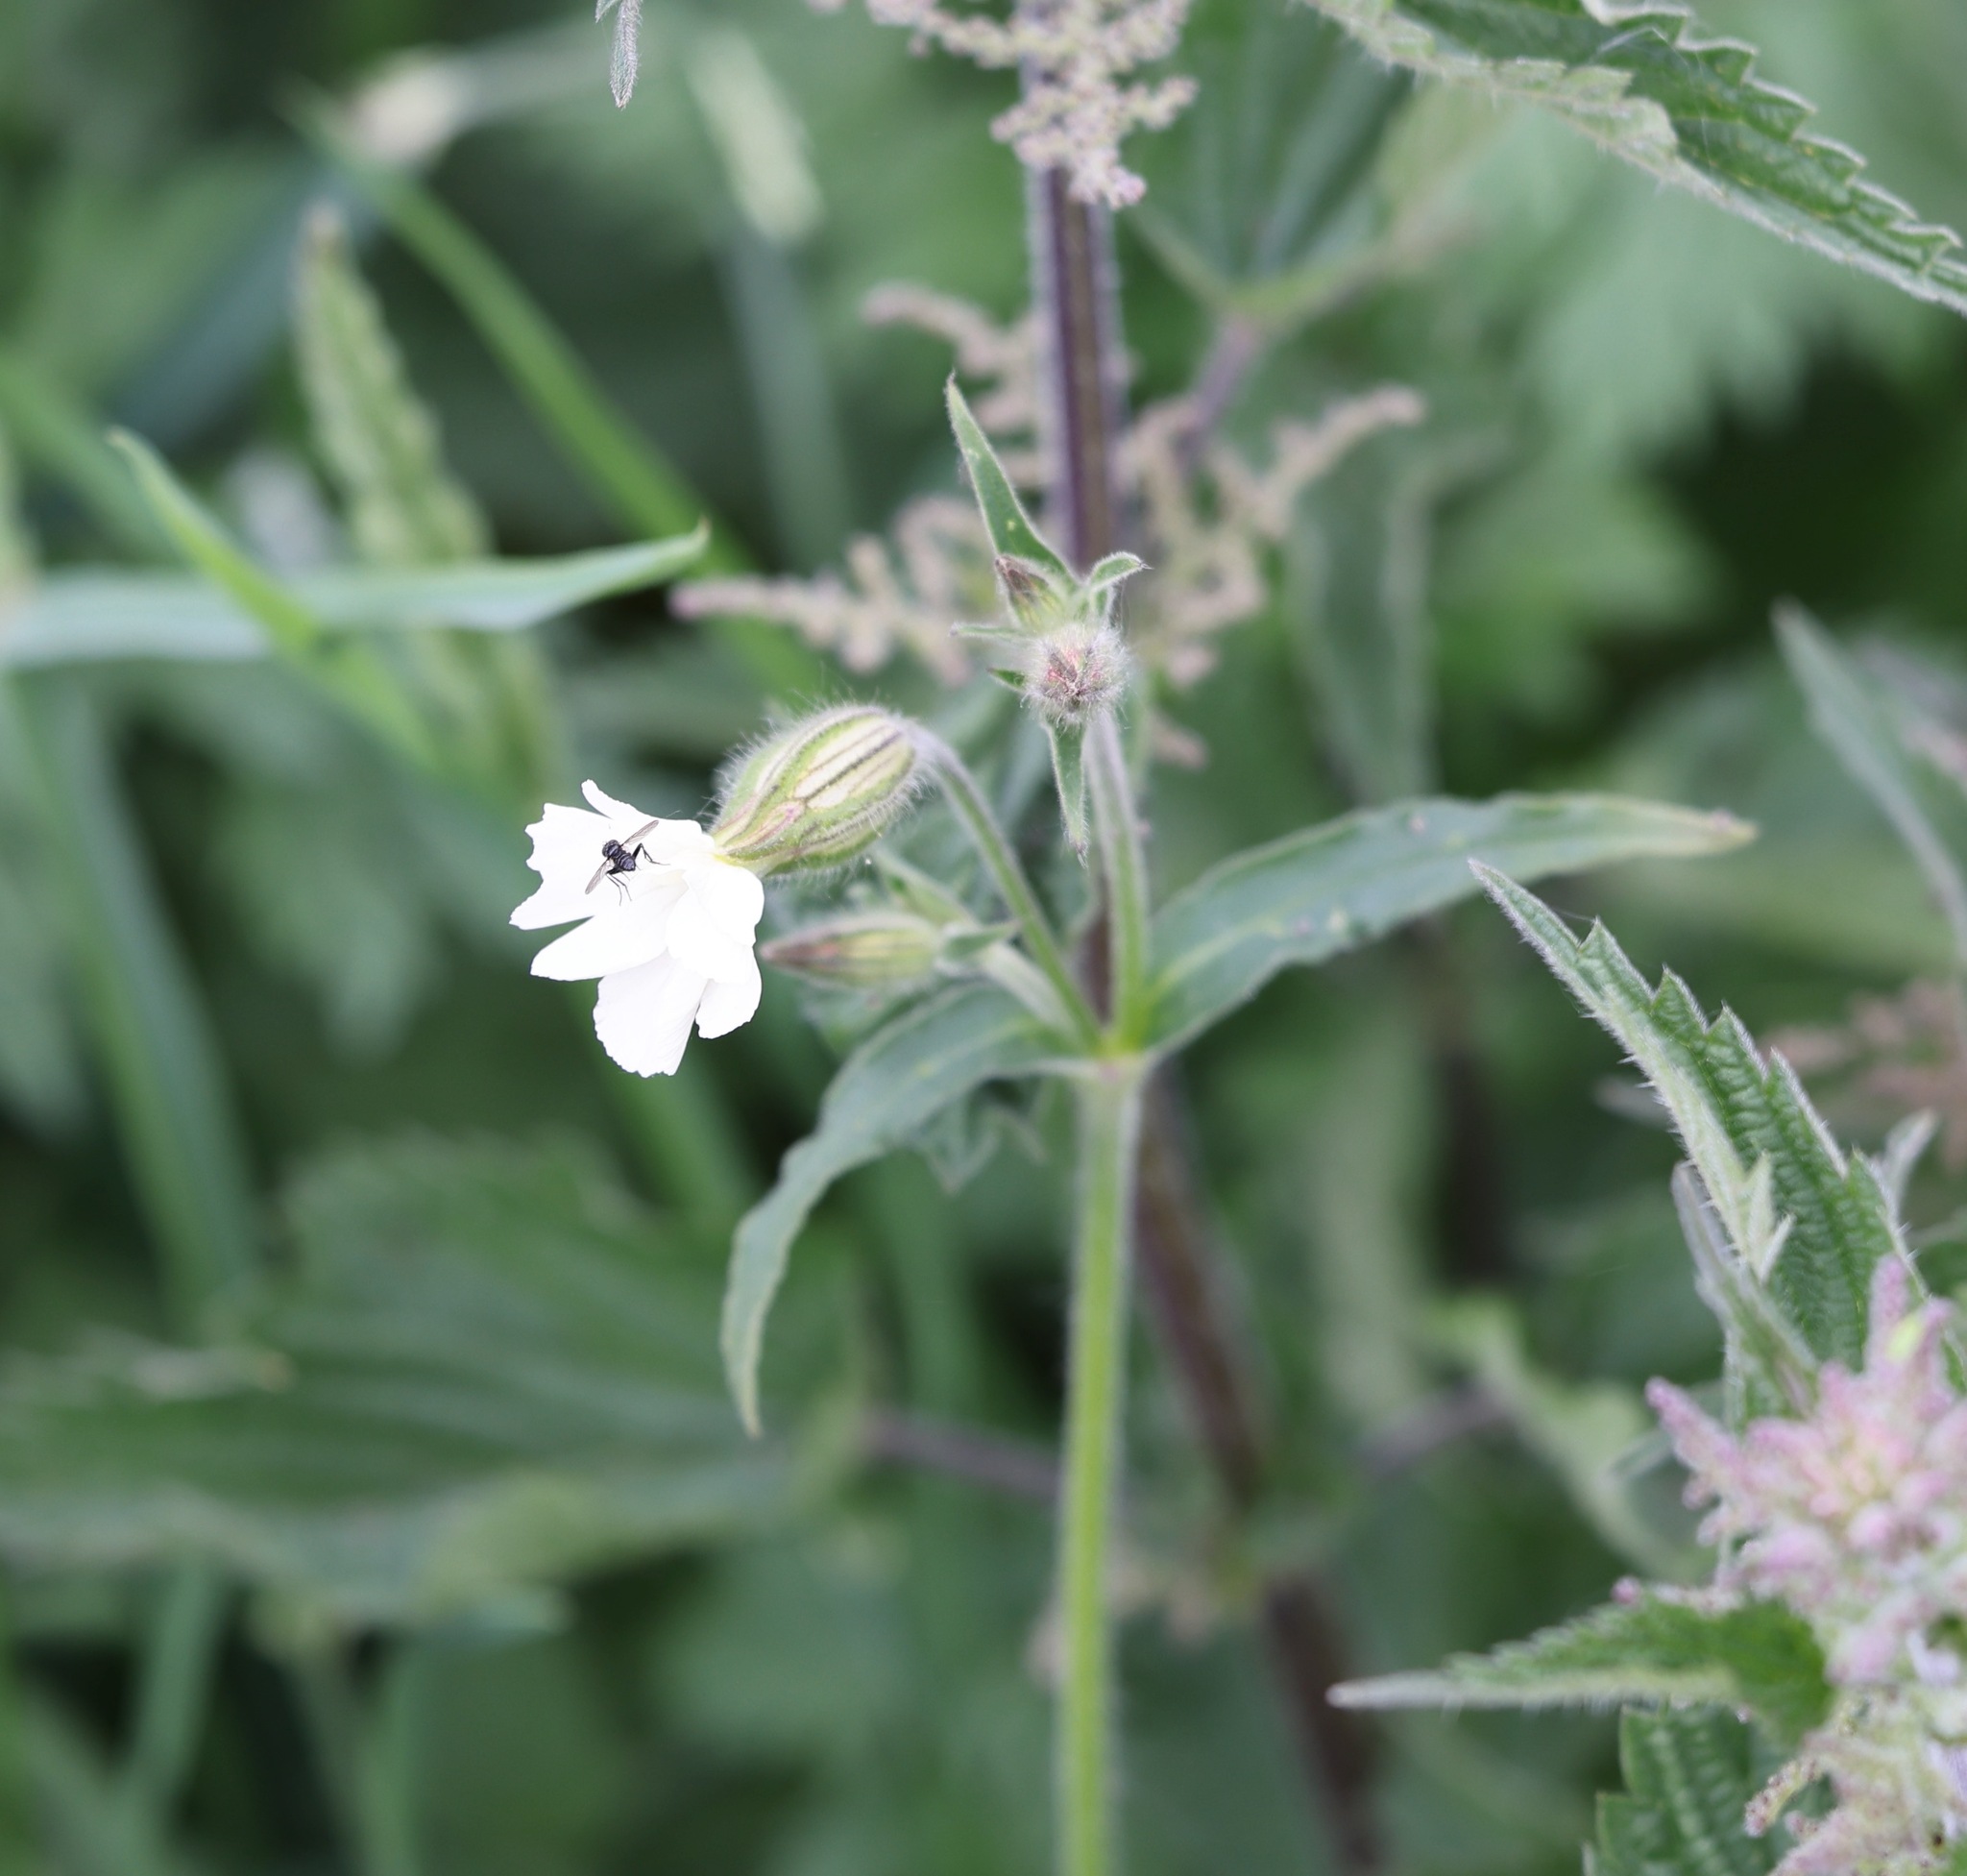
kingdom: Plantae
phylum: Tracheophyta
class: Magnoliopsida
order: Caryophyllales
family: Caryophyllaceae
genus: Silene
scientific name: Silene latifolia
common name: White campion
